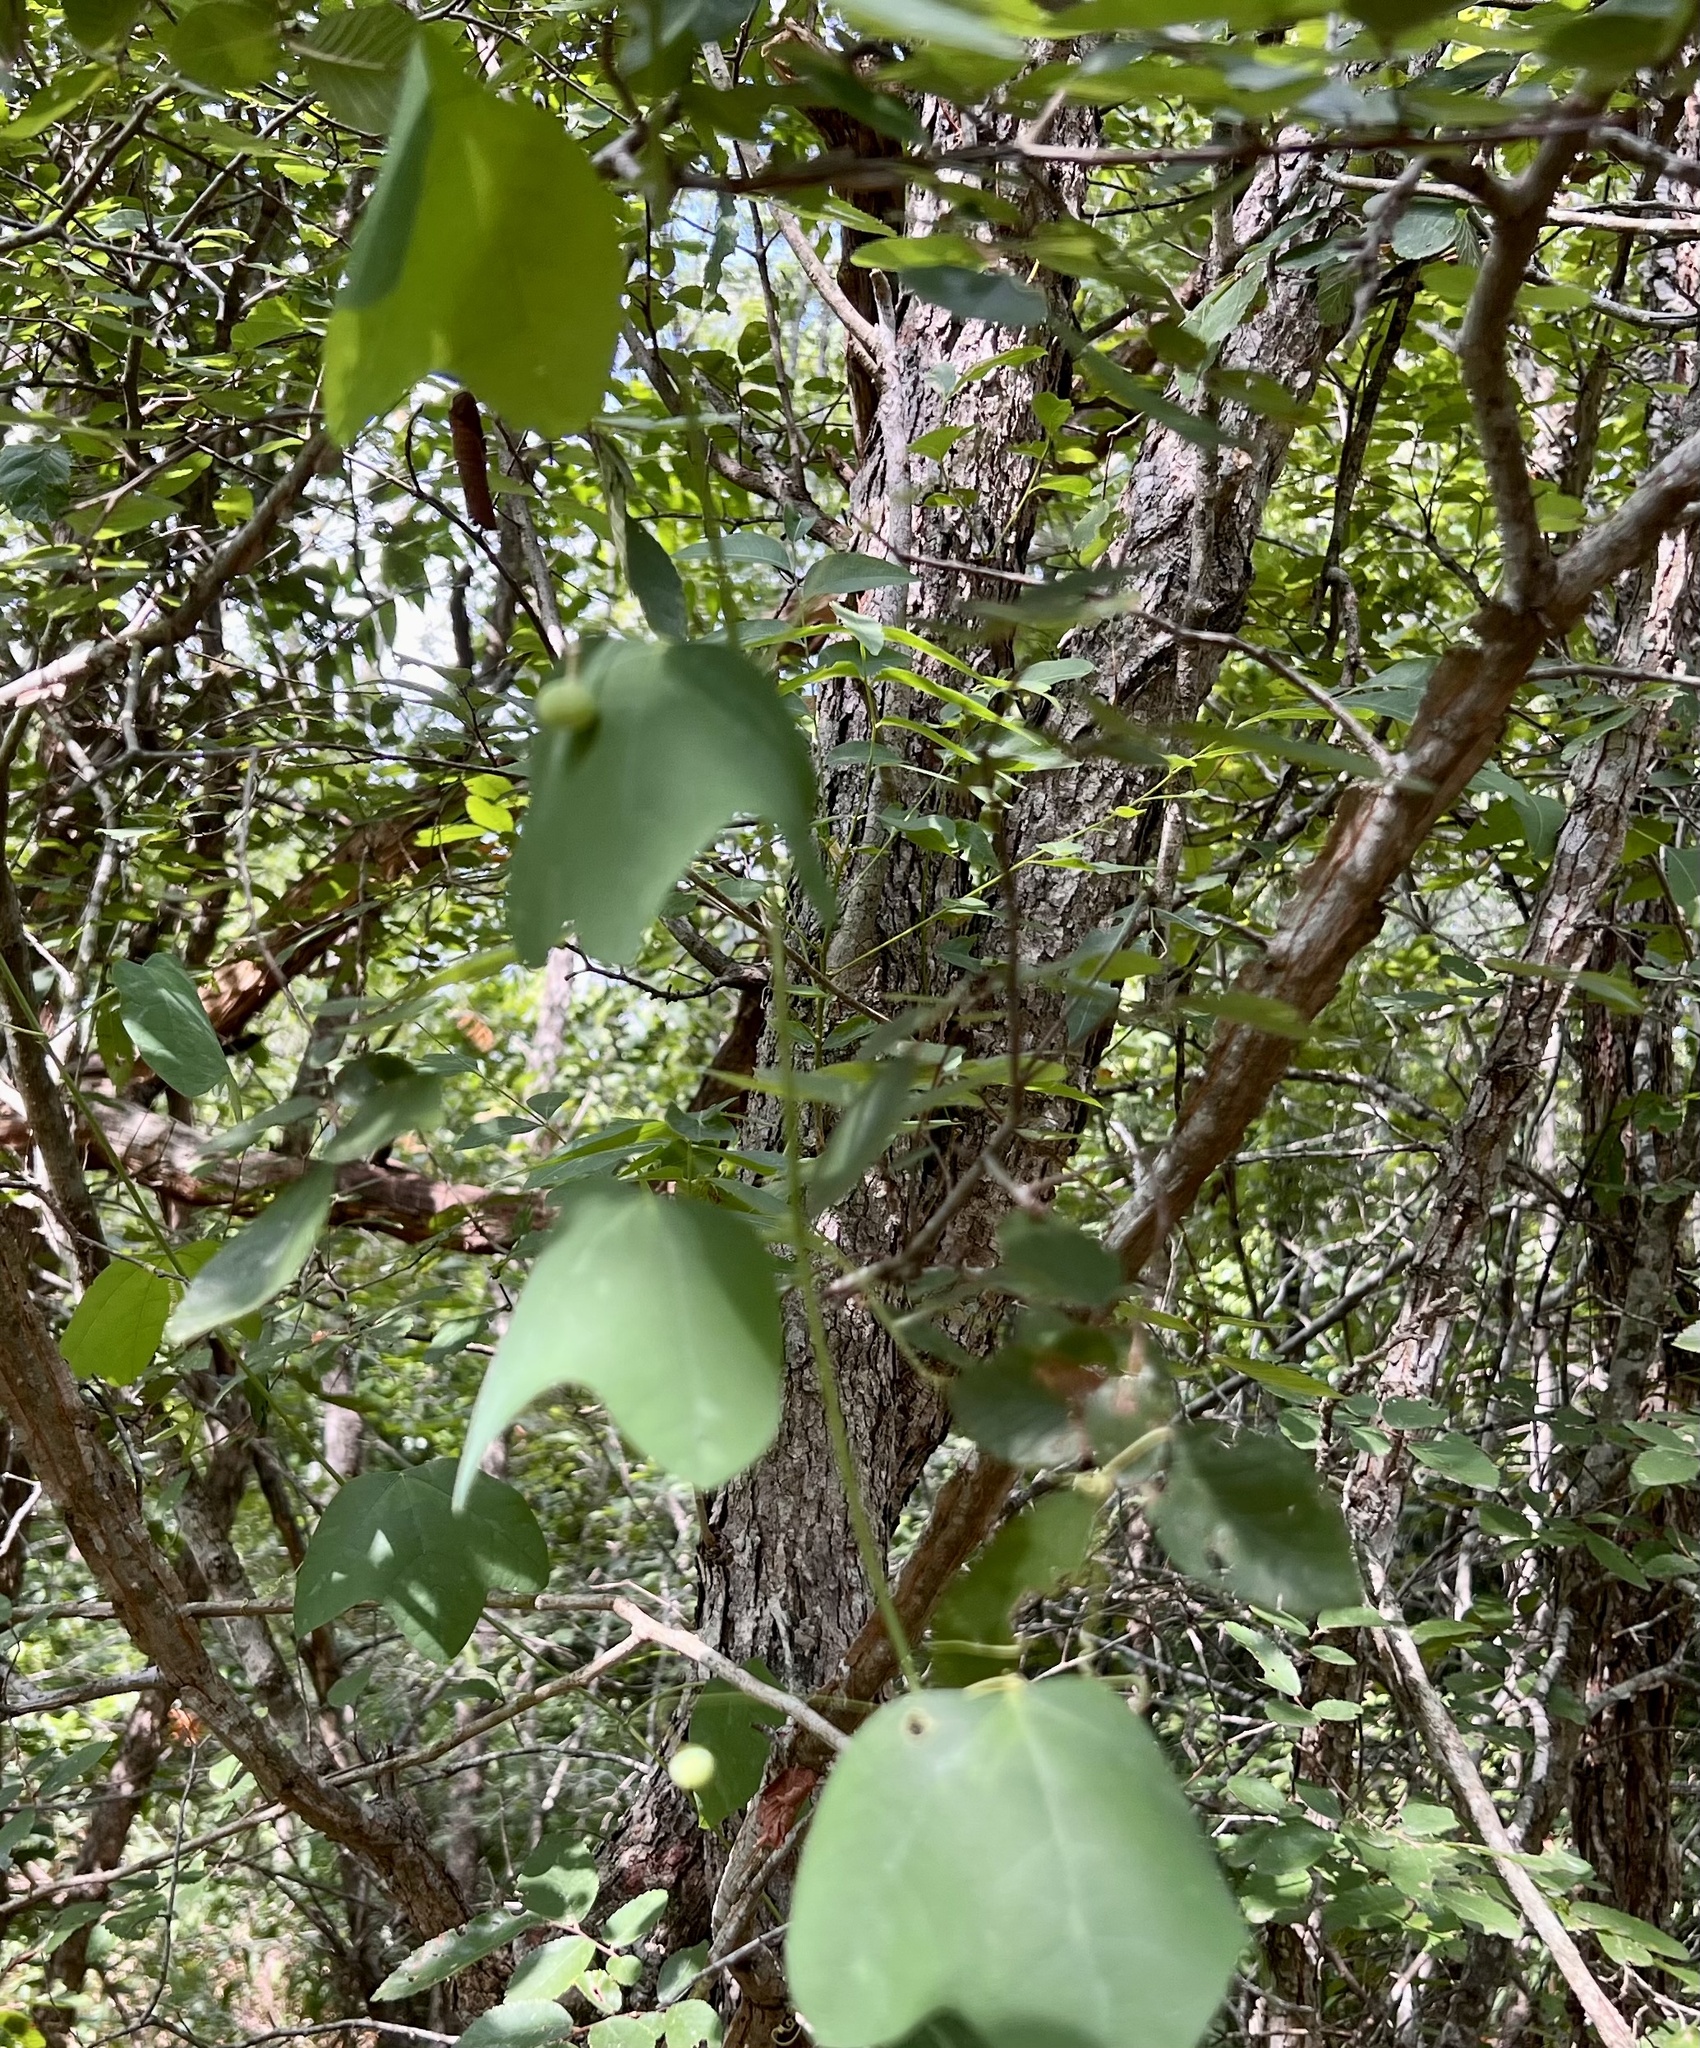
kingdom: Plantae
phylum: Tracheophyta
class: Magnoliopsida
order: Malpighiales
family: Passifloraceae
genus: Passiflora
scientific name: Passiflora lutea
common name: Yellow passionflower
